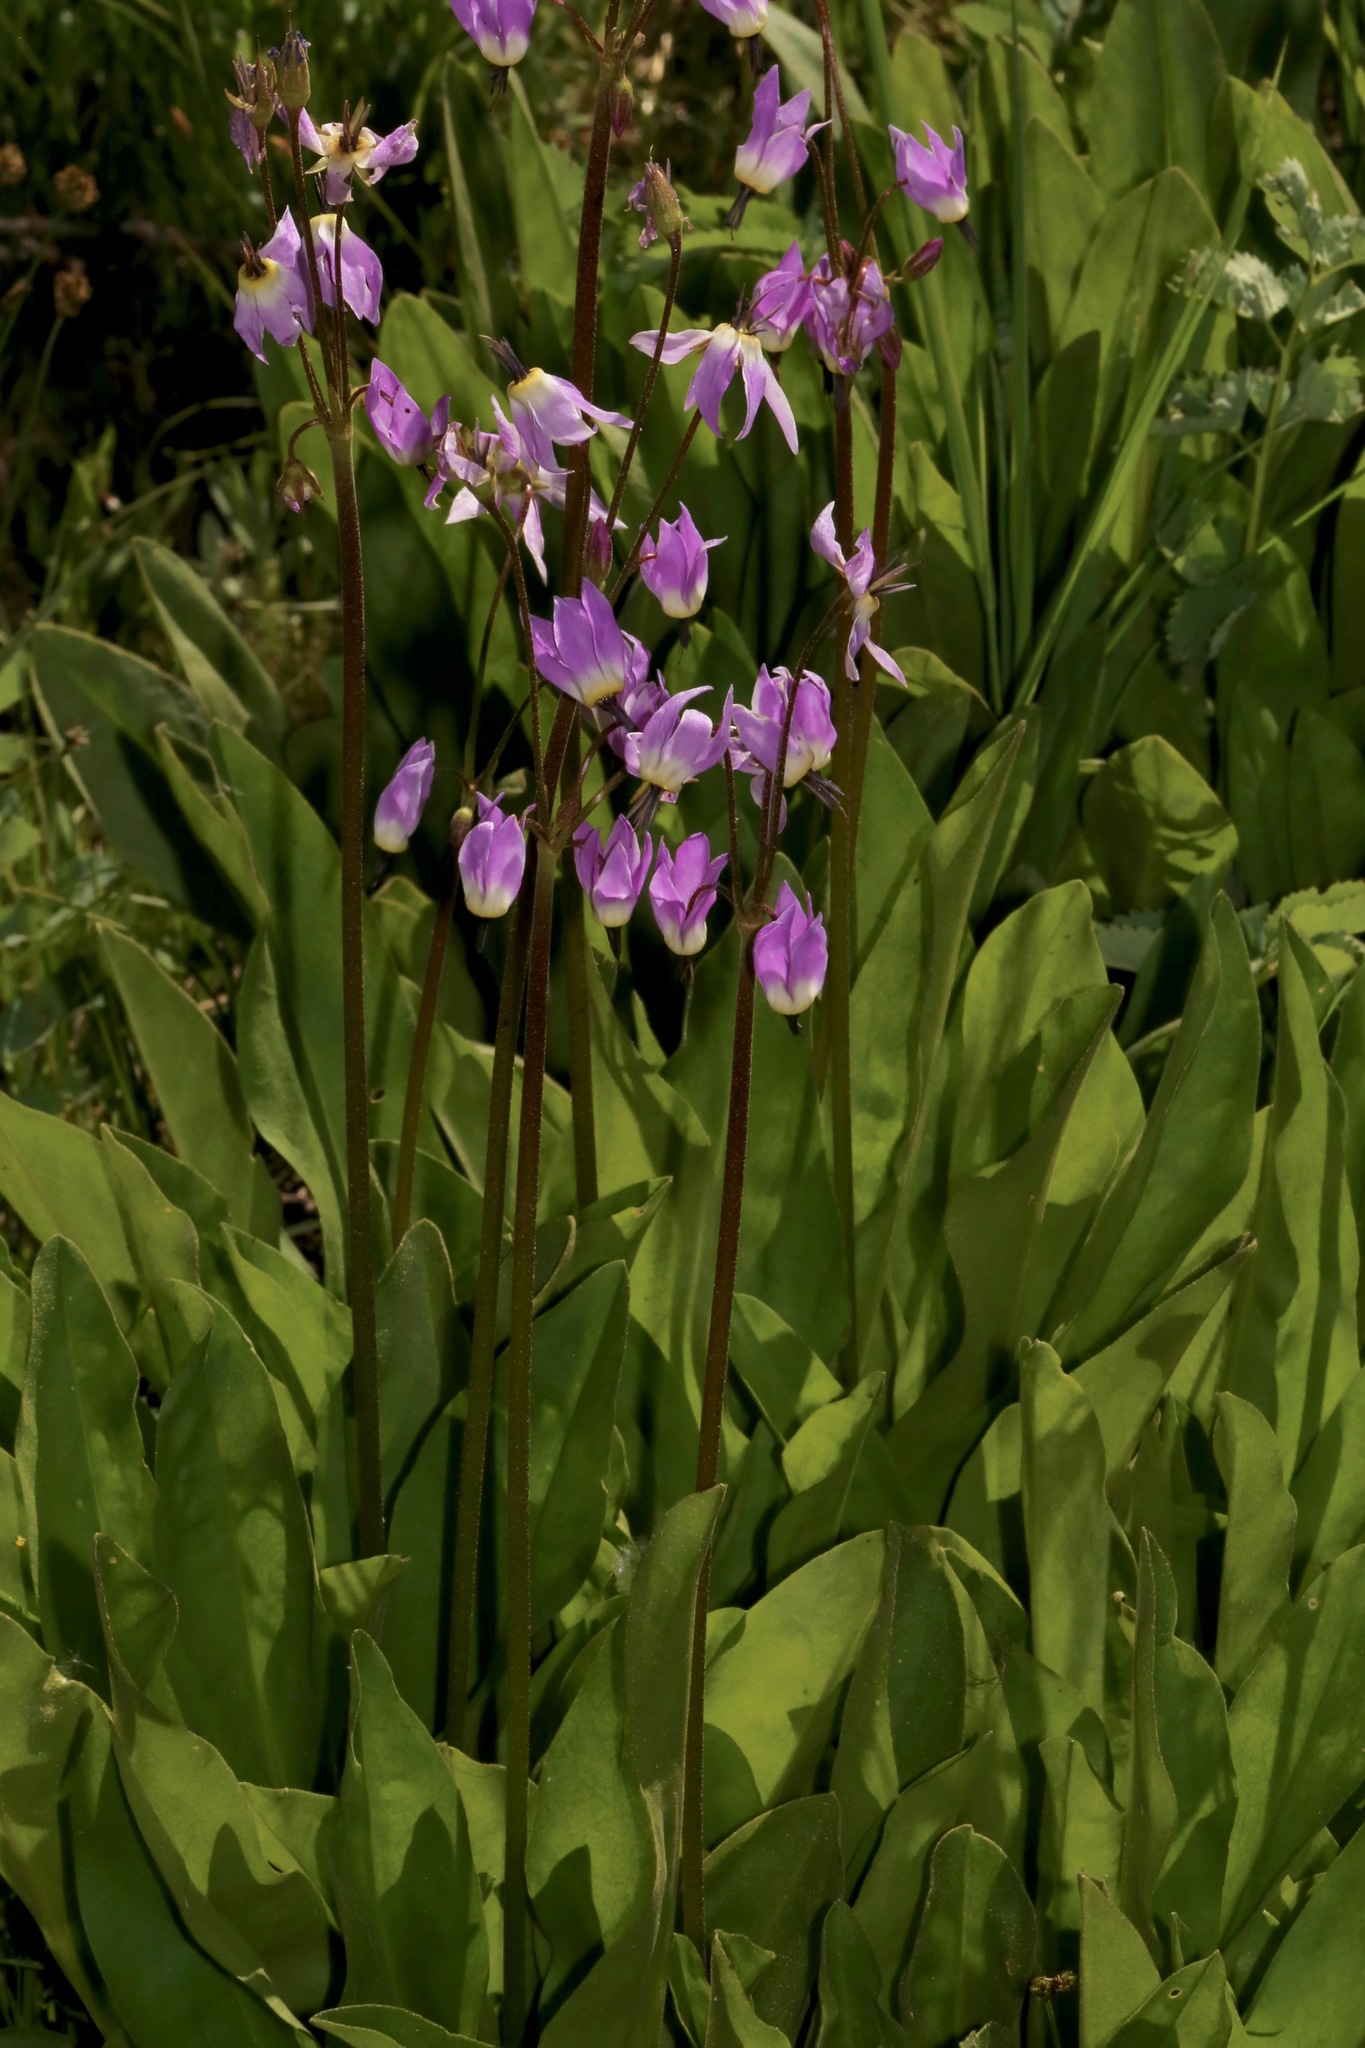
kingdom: Plantae
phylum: Tracheophyta
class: Magnoliopsida
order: Ericales
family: Primulaceae
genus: Dodecatheon
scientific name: Dodecatheon jeffreyanum
